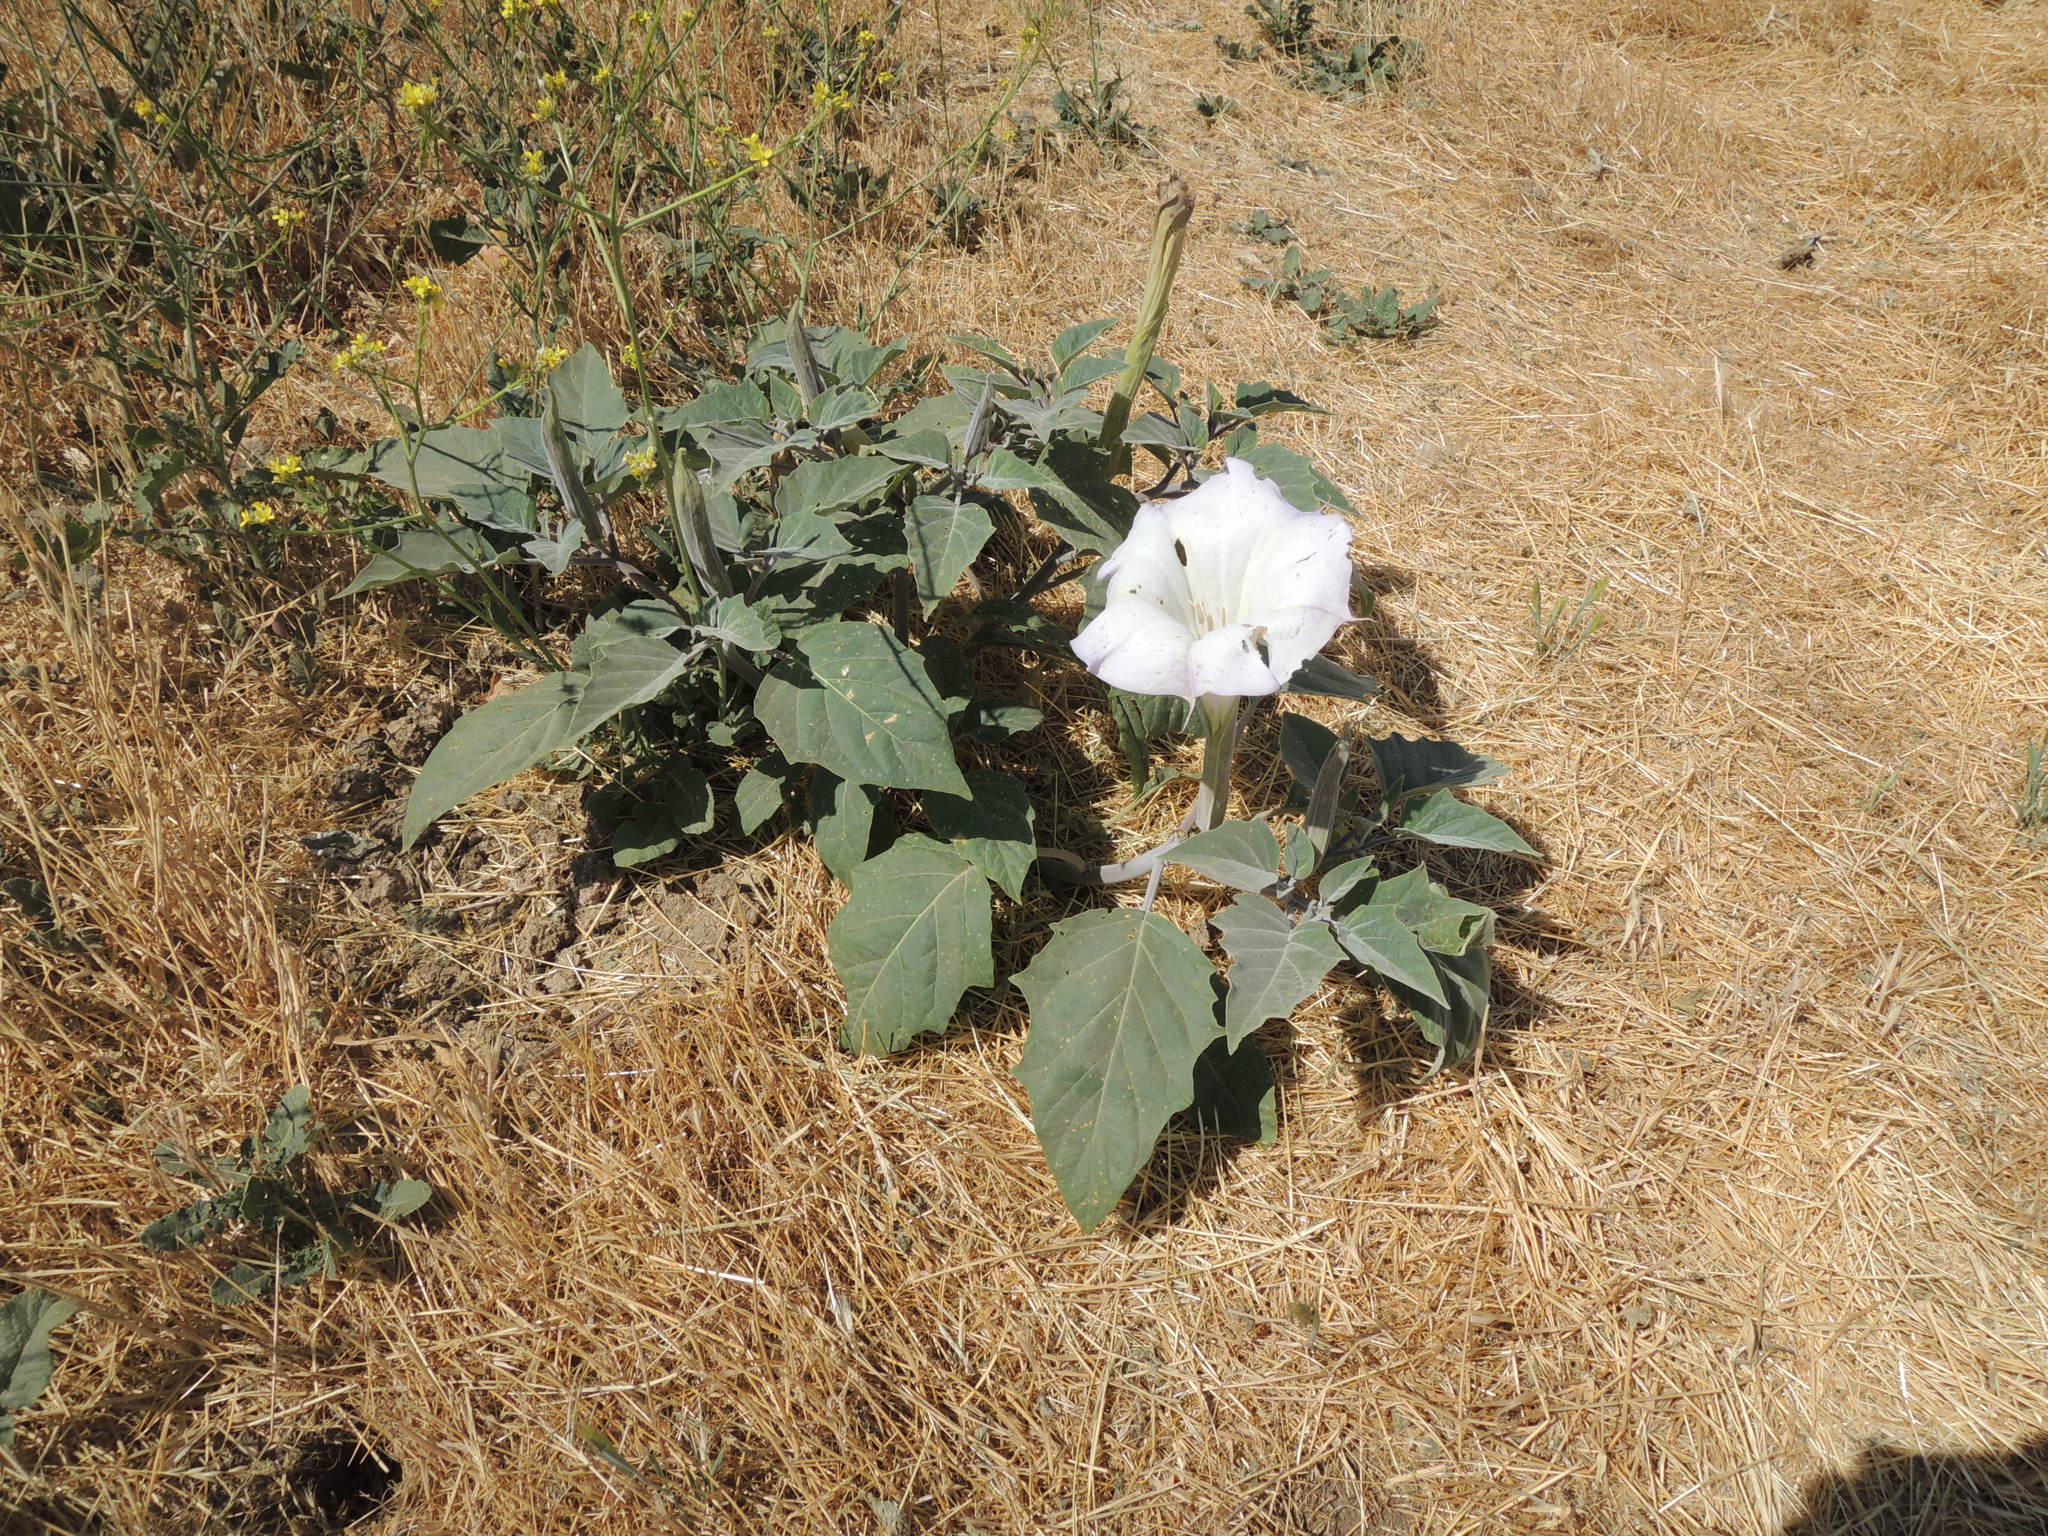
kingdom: Plantae
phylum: Tracheophyta
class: Magnoliopsida
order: Solanales
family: Solanaceae
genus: Datura
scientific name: Datura wrightii
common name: Sacred thorn-apple
